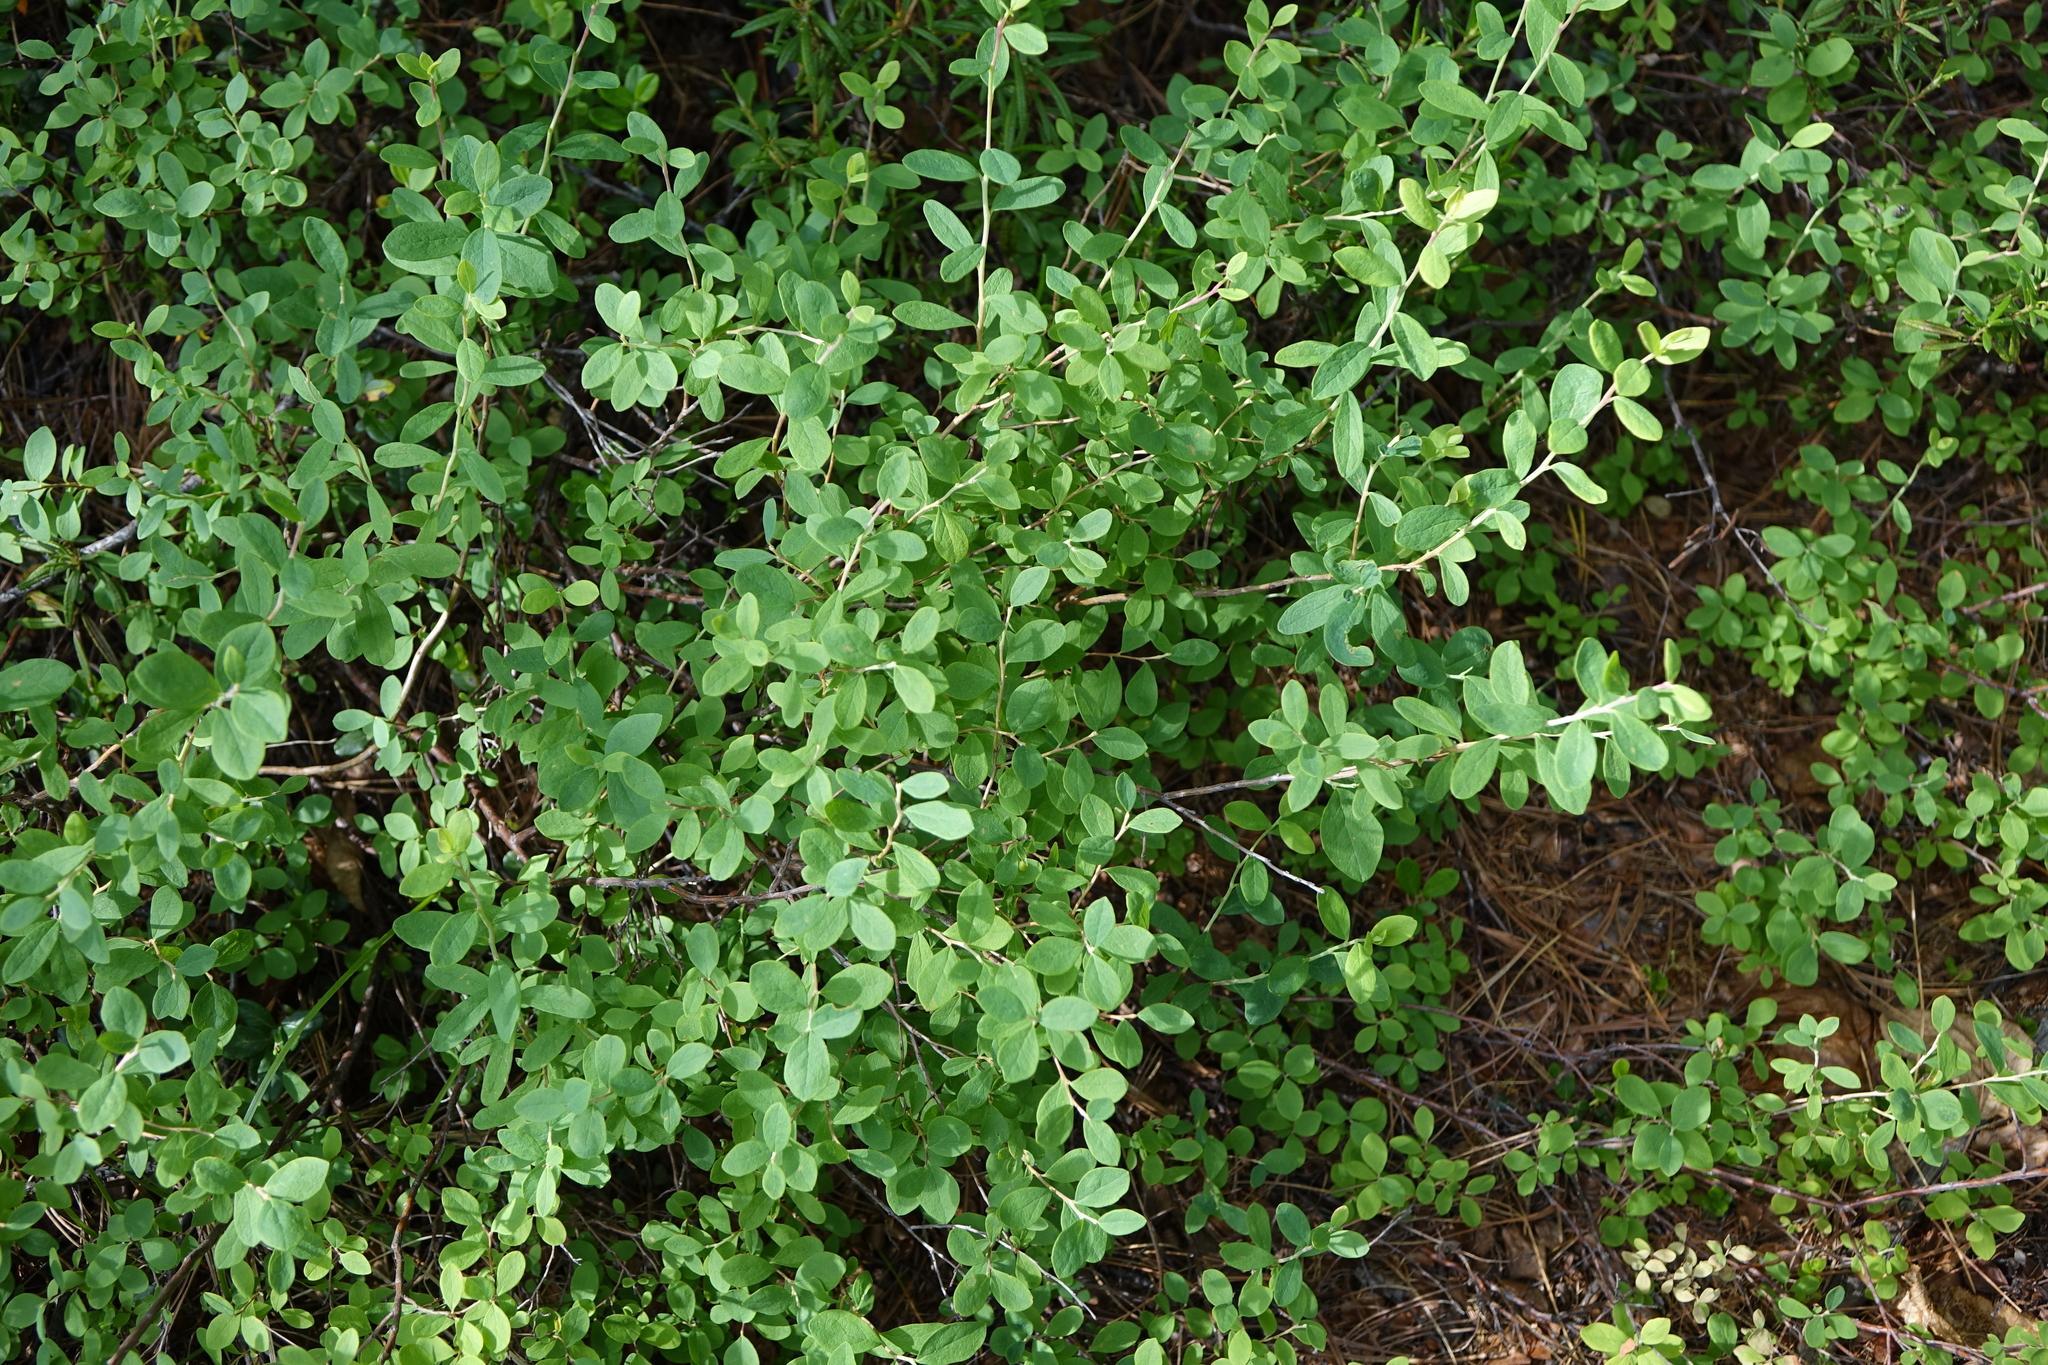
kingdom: Plantae
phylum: Tracheophyta
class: Magnoliopsida
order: Ericales
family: Ericaceae
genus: Vaccinium
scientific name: Vaccinium uliginosum
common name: Bog bilberry
